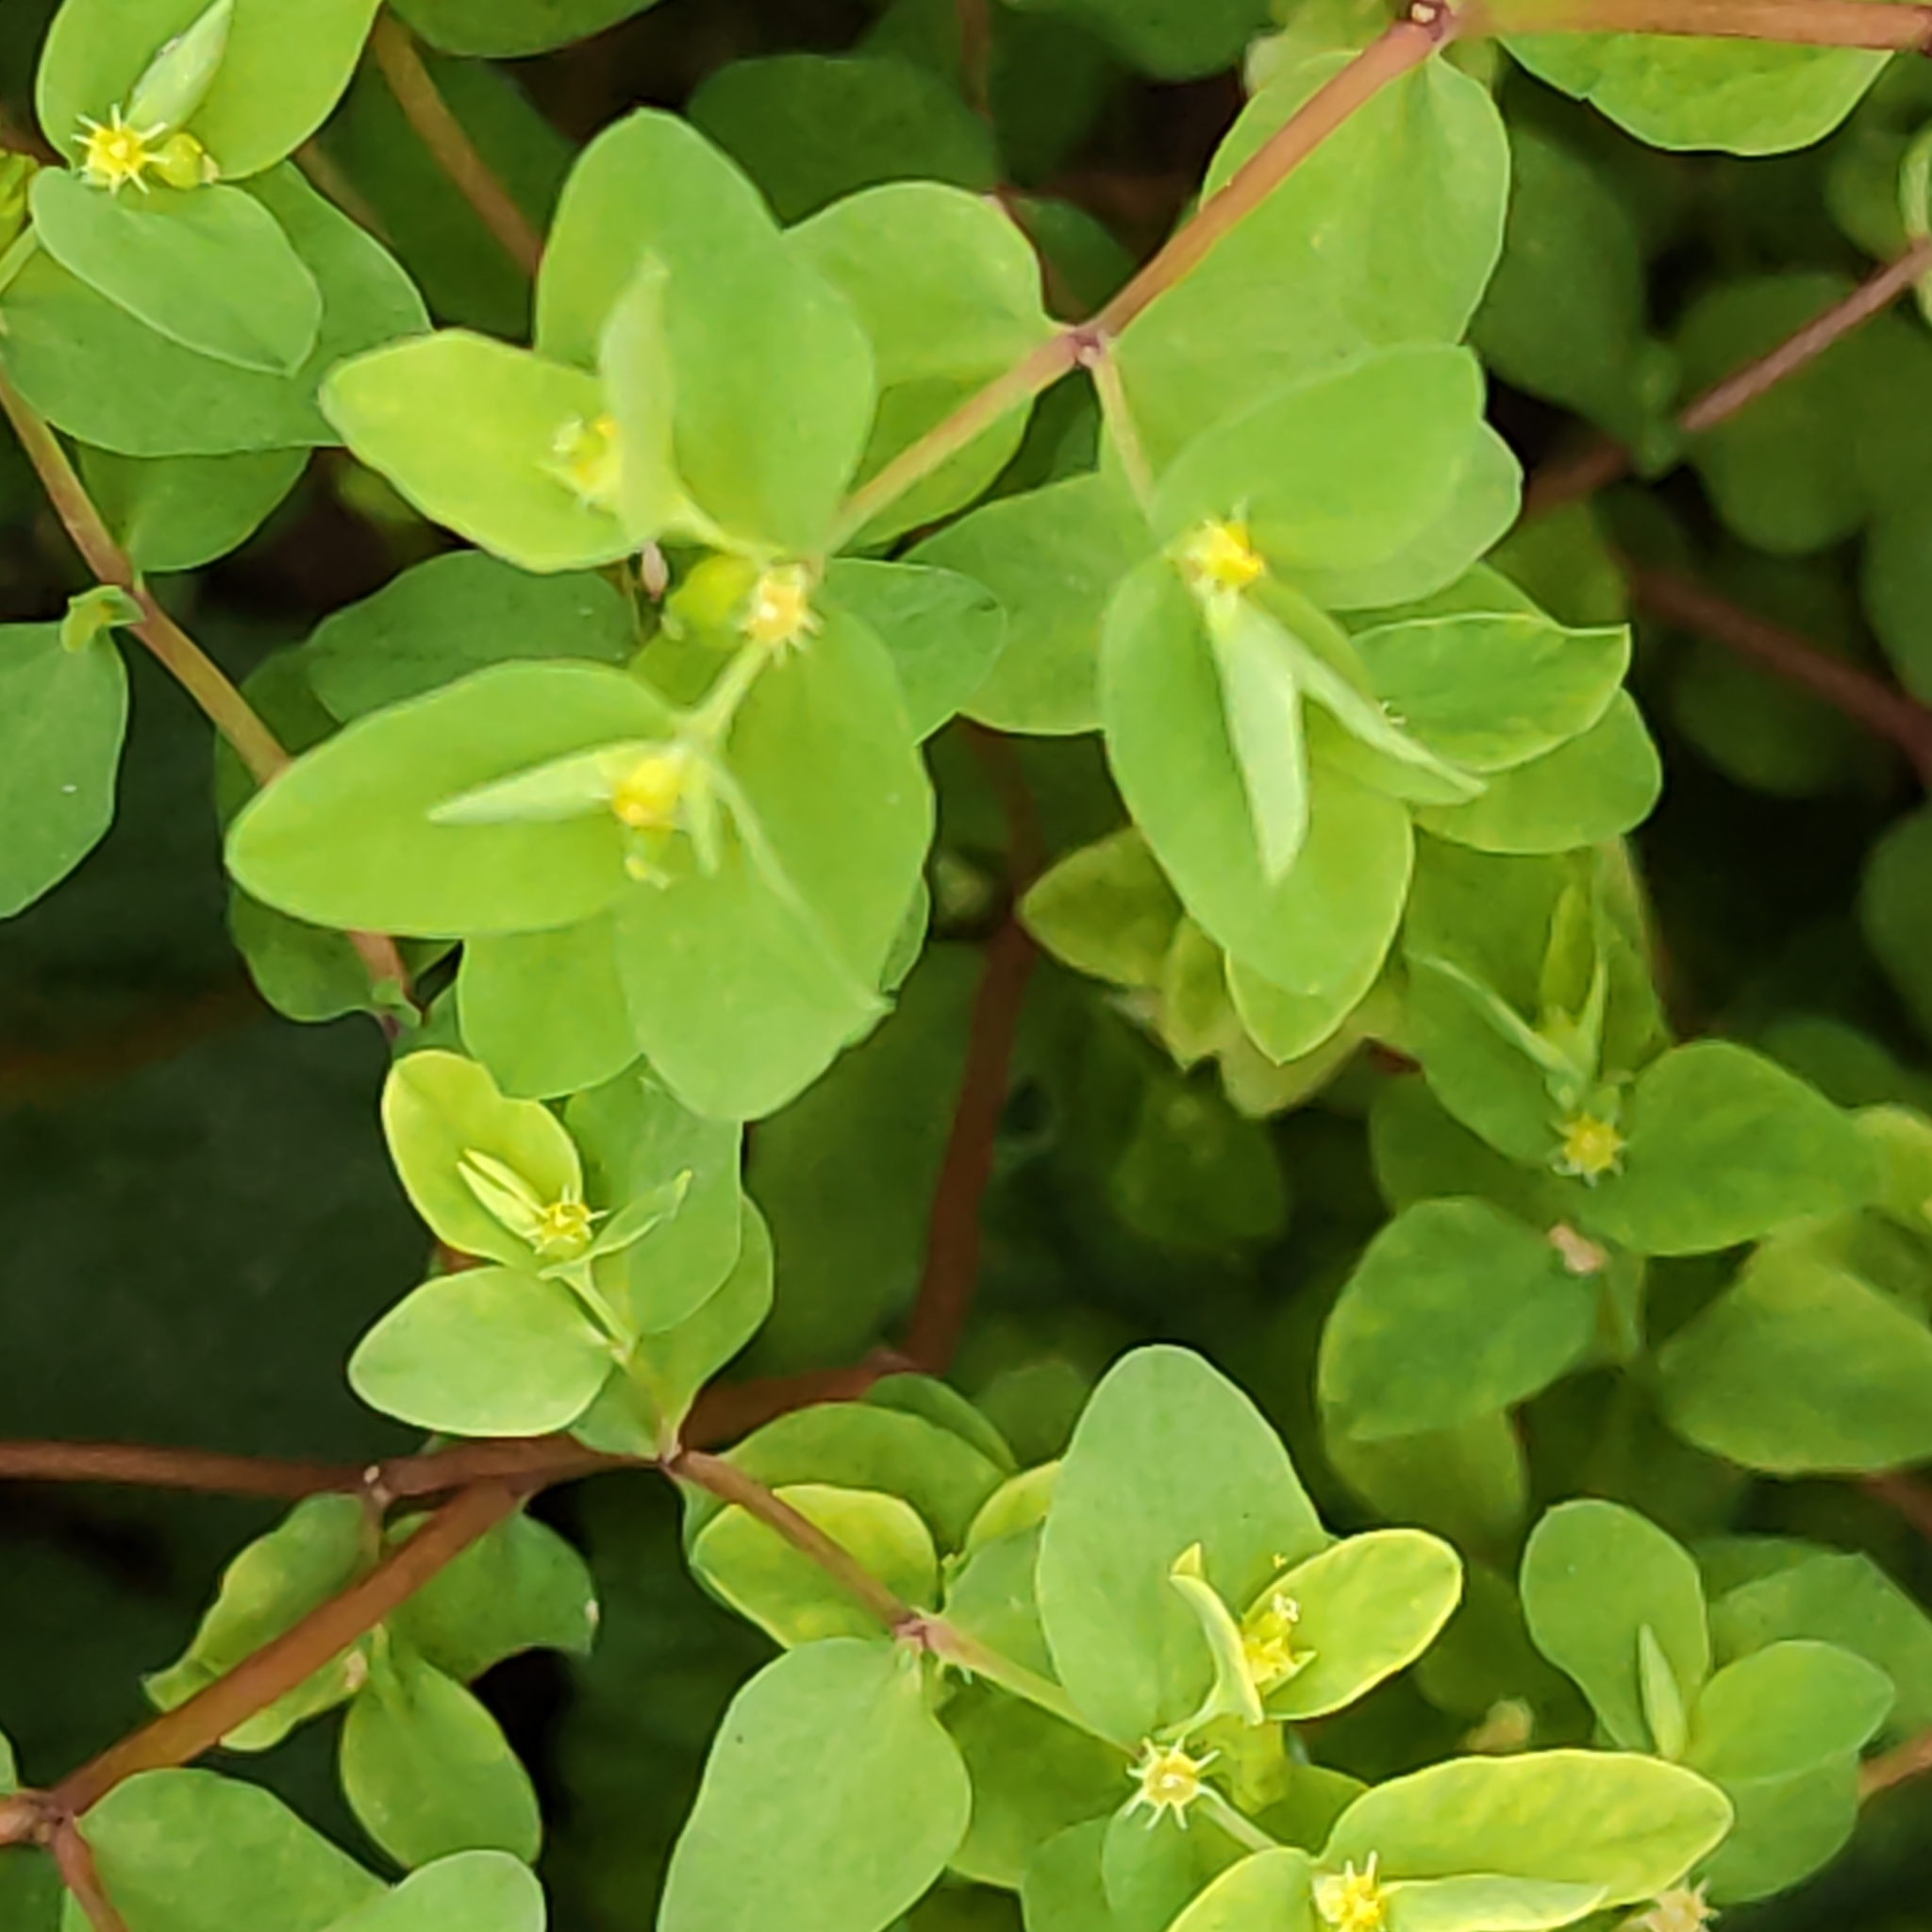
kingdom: Plantae
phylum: Tracheophyta
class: Magnoliopsida
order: Malpighiales
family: Euphorbiaceae
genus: Euphorbia
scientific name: Euphorbia peplus
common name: Petty spurge
